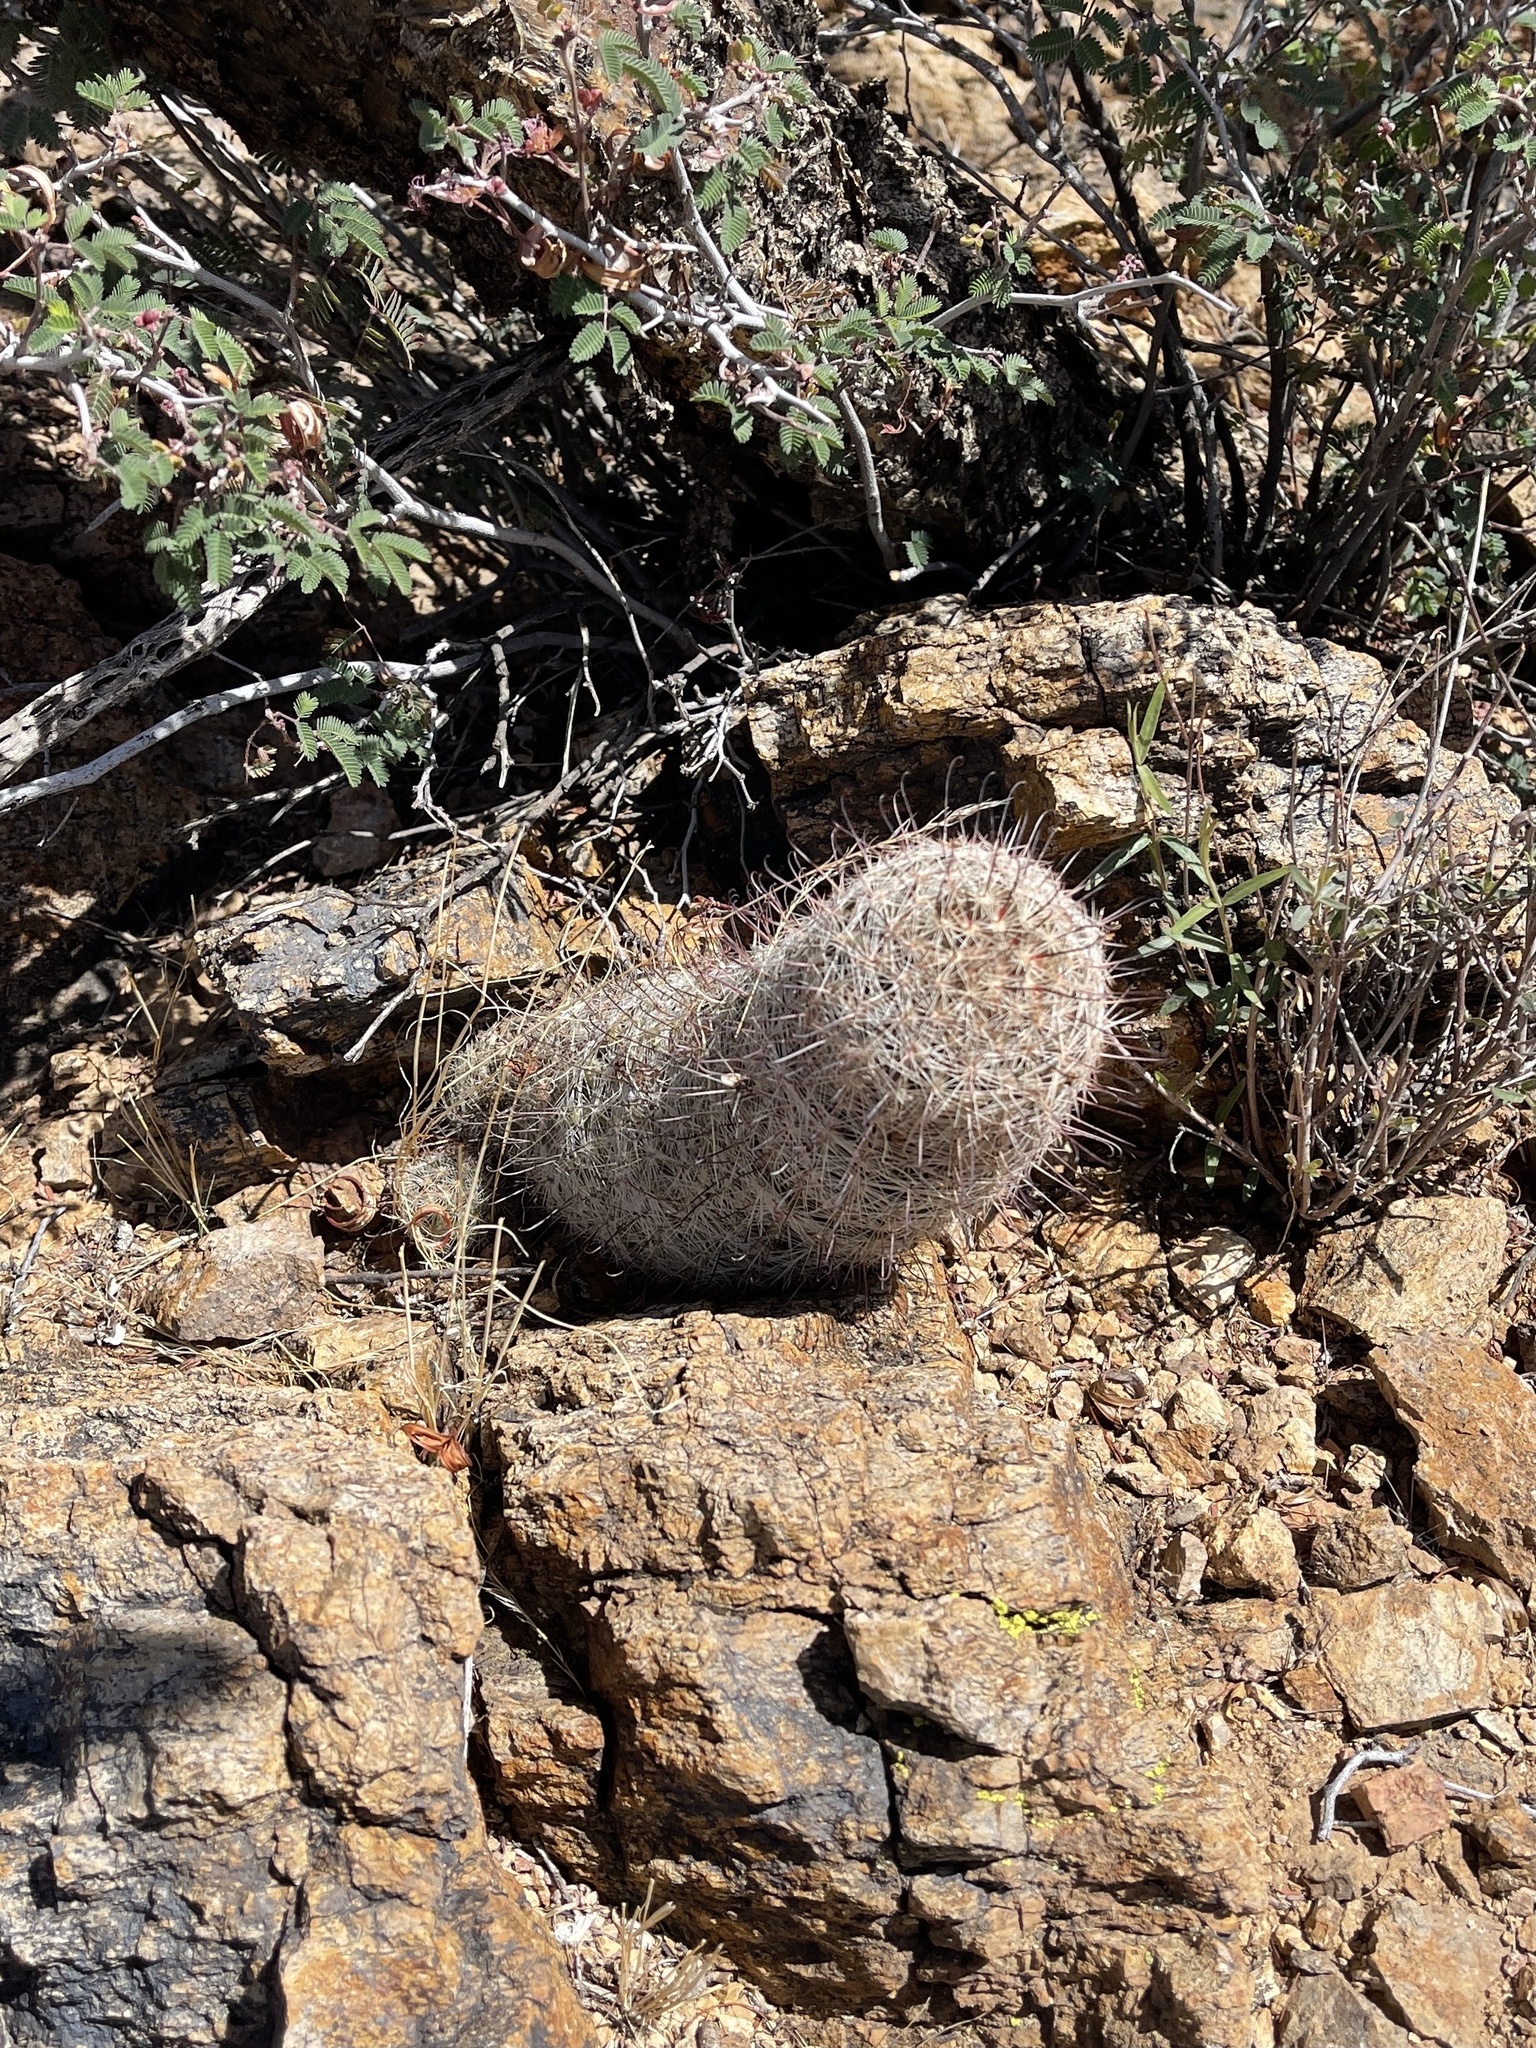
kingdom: Plantae
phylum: Tracheophyta
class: Magnoliopsida
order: Caryophyllales
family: Cactaceae
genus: Cochemiea
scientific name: Cochemiea grahamii
